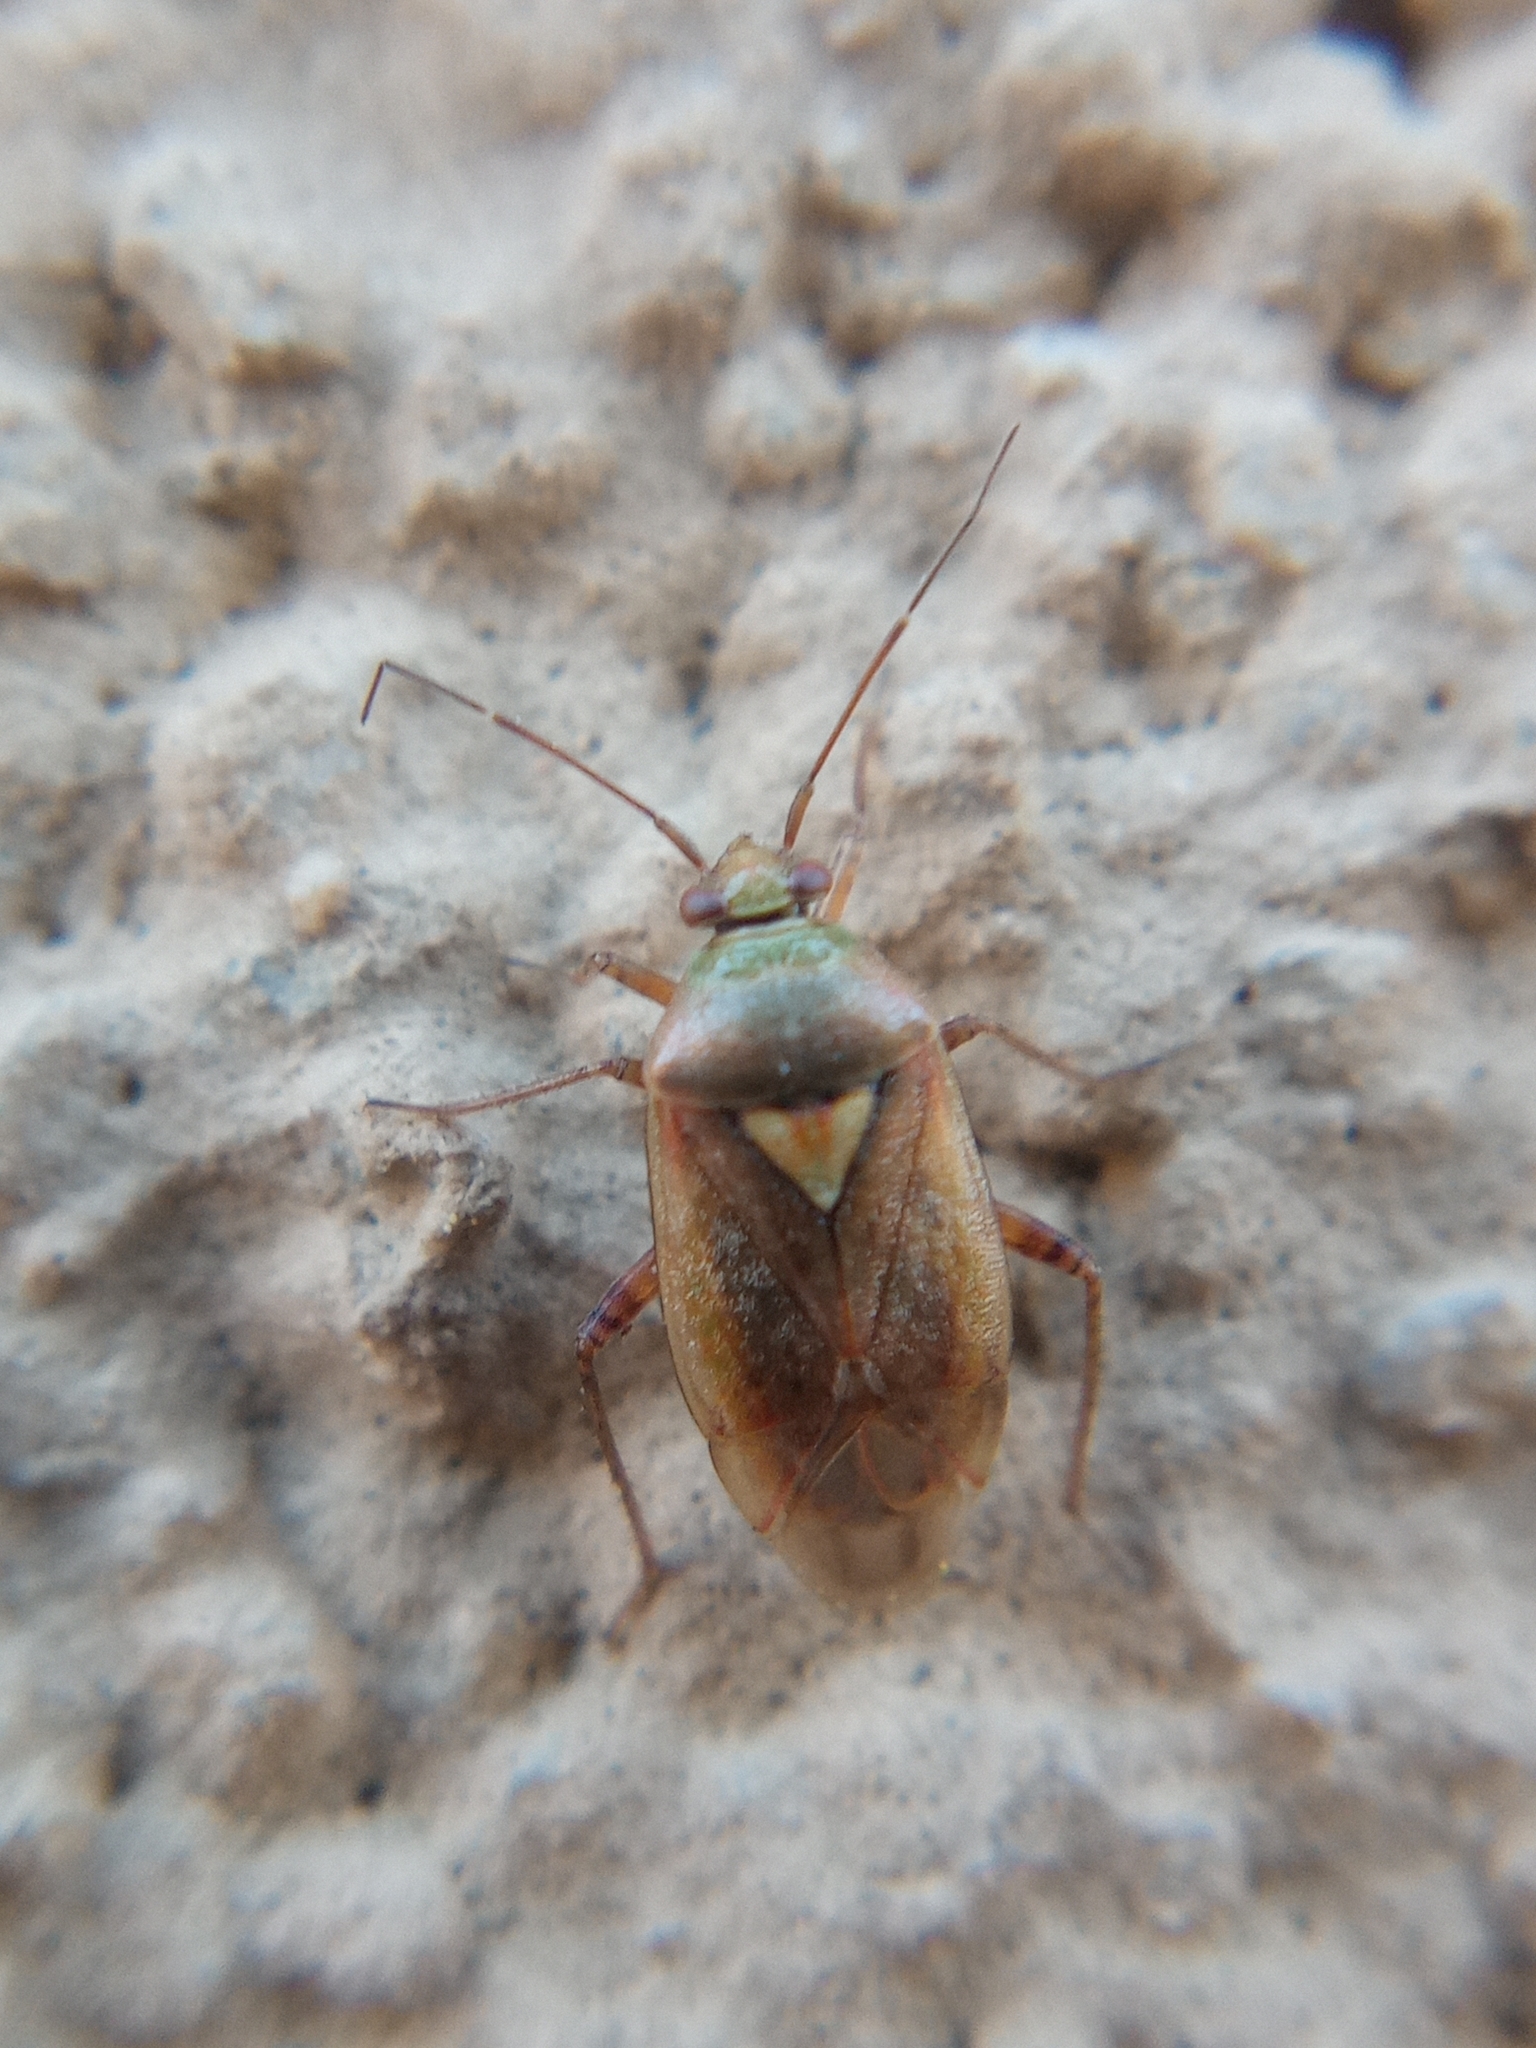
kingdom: Animalia
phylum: Arthropoda
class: Insecta
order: Hemiptera
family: Miridae
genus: Lygus
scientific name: Lygus rugulipennis
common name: European tarnished plant bug
